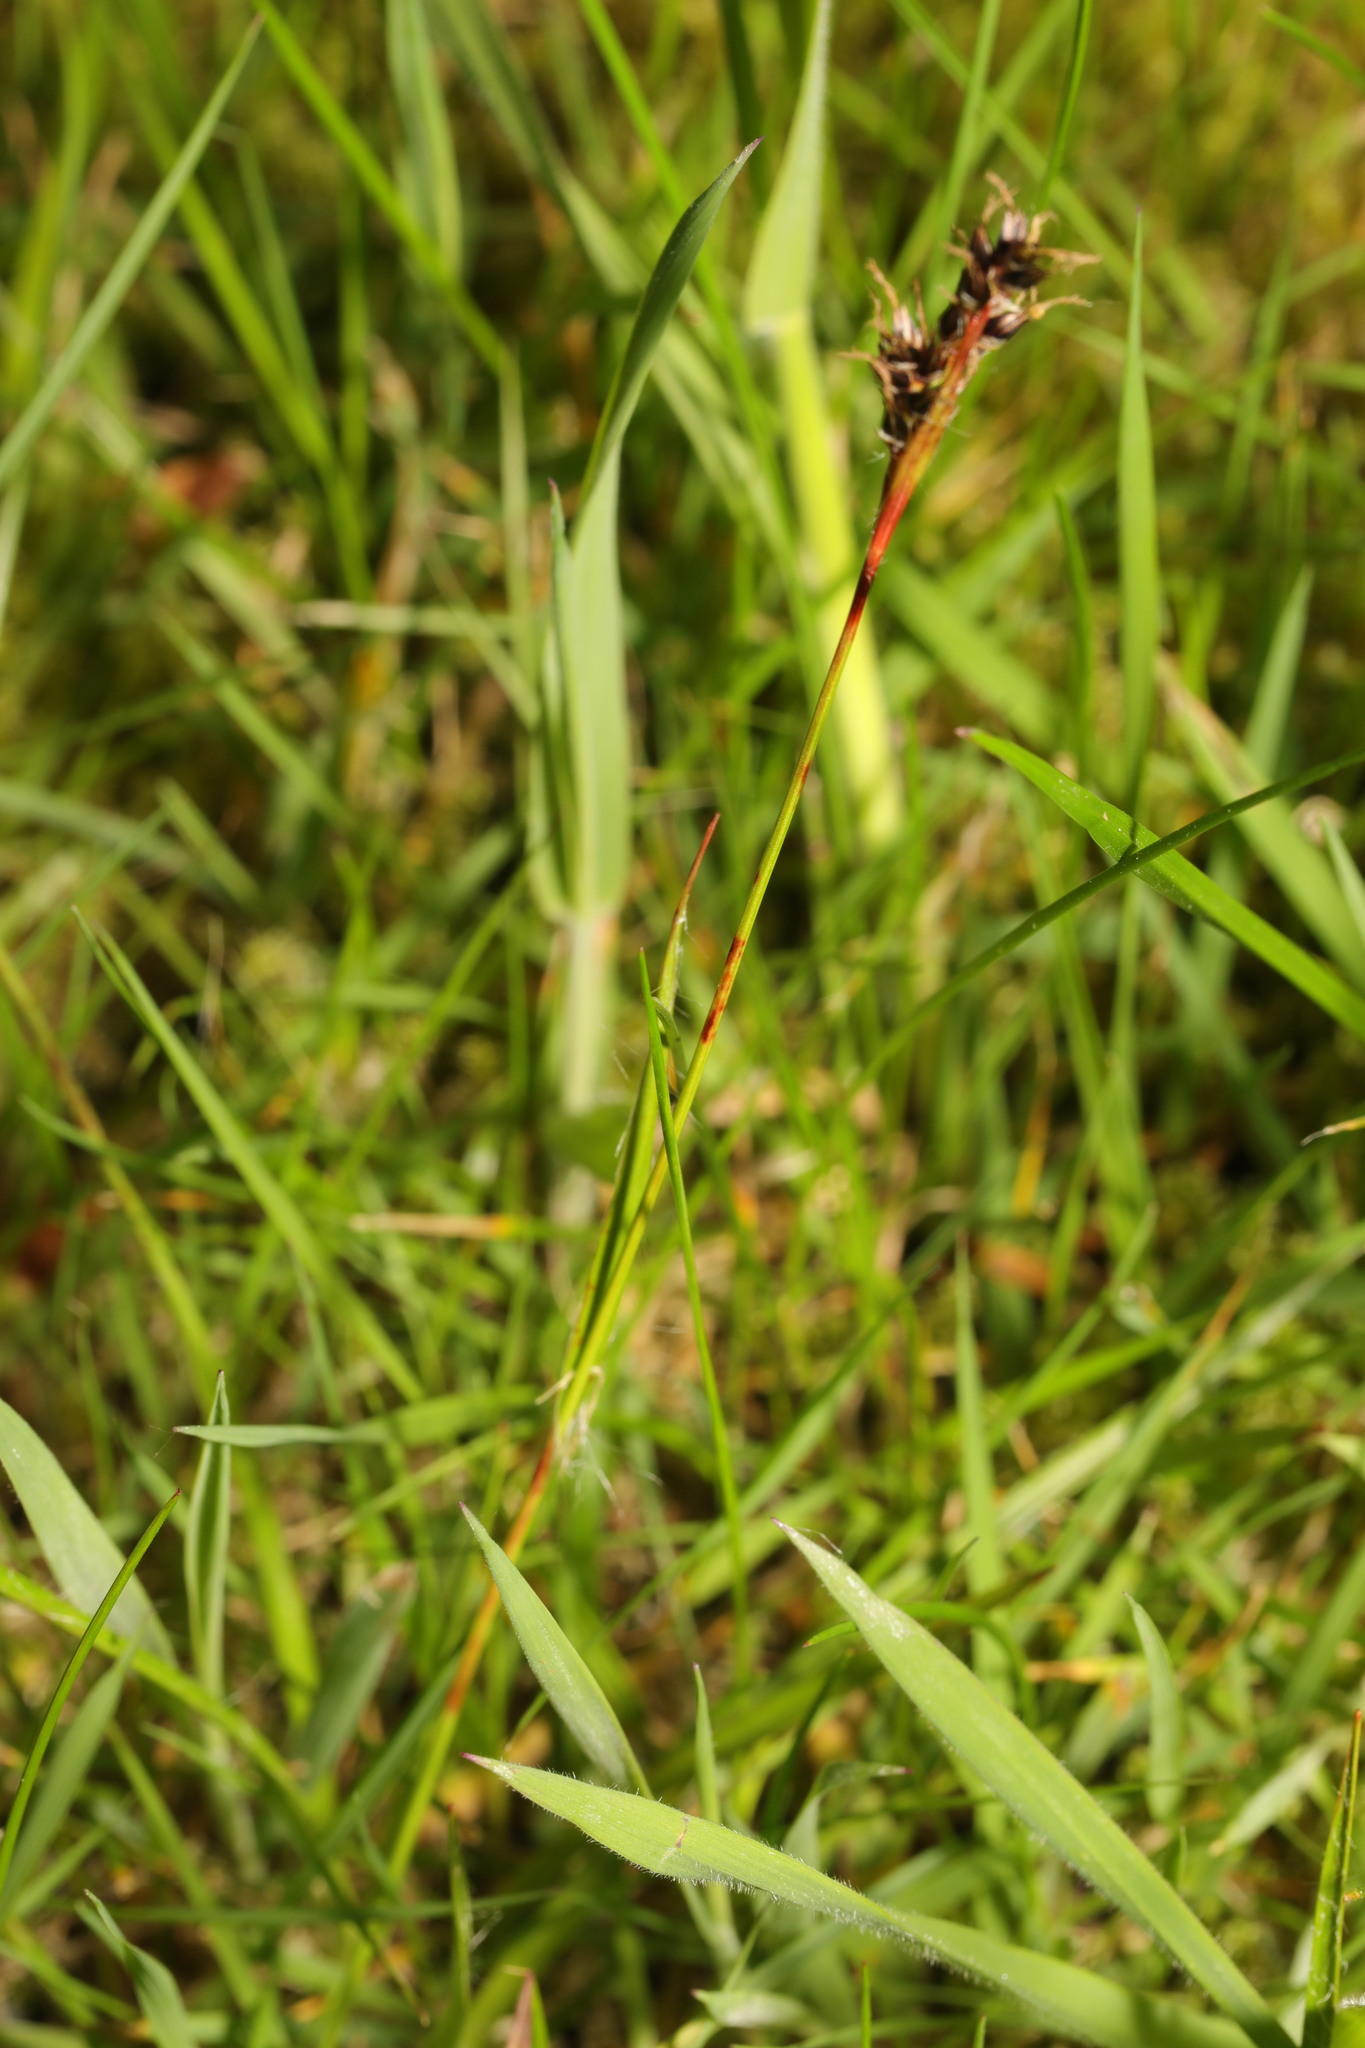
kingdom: Plantae
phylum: Tracheophyta
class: Liliopsida
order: Poales
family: Juncaceae
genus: Luzula
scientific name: Luzula campestris
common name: Field wood-rush
